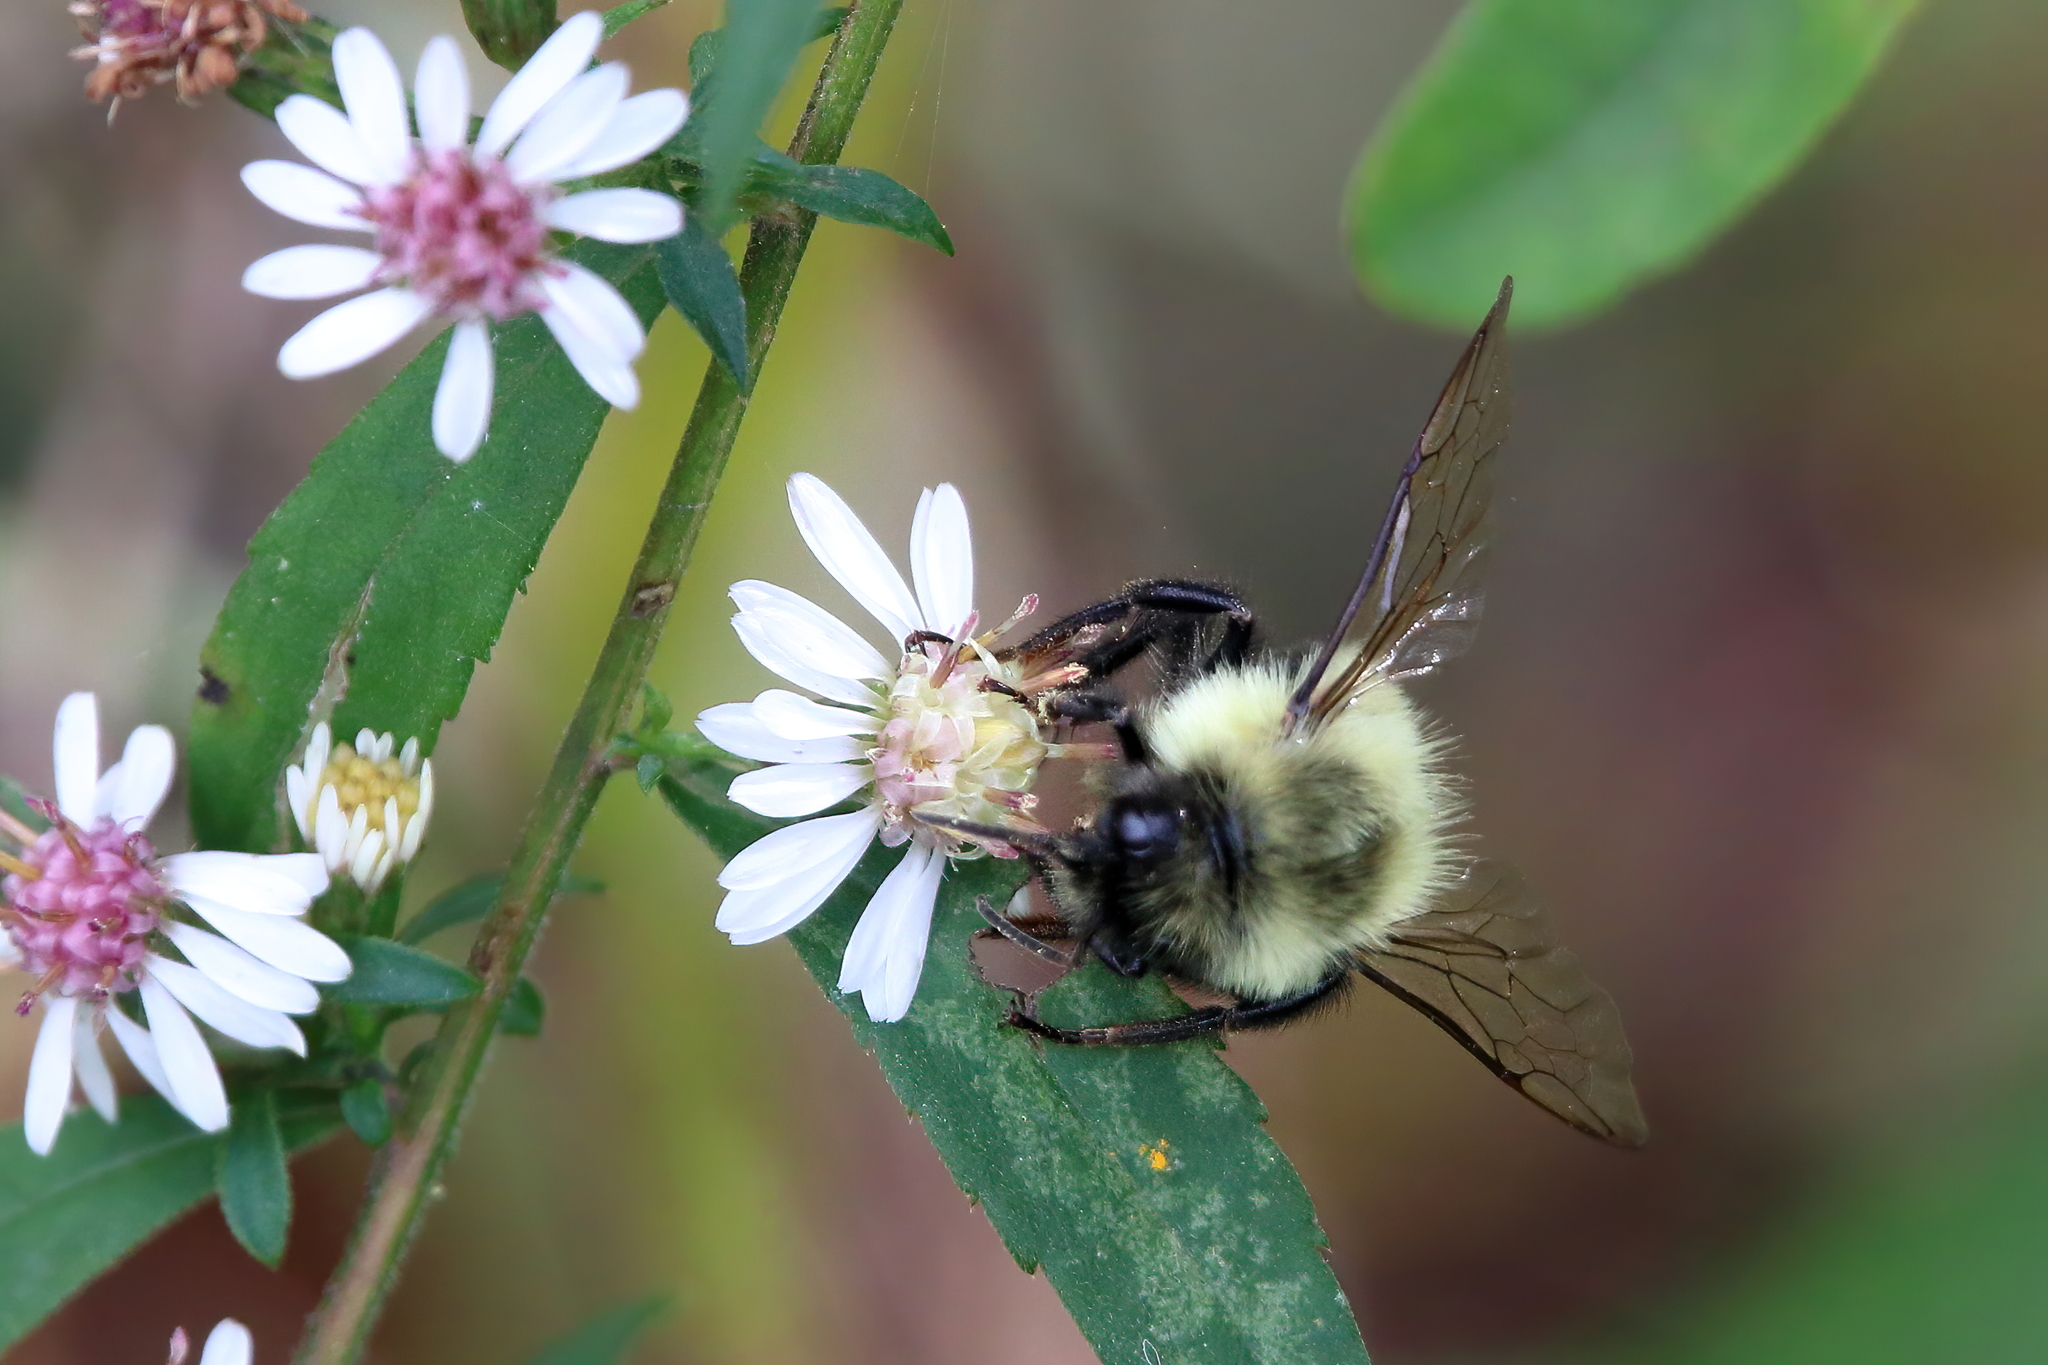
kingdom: Animalia
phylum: Arthropoda
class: Insecta
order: Hymenoptera
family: Apidae
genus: Bombus
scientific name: Bombus impatiens
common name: Common eastern bumble bee
